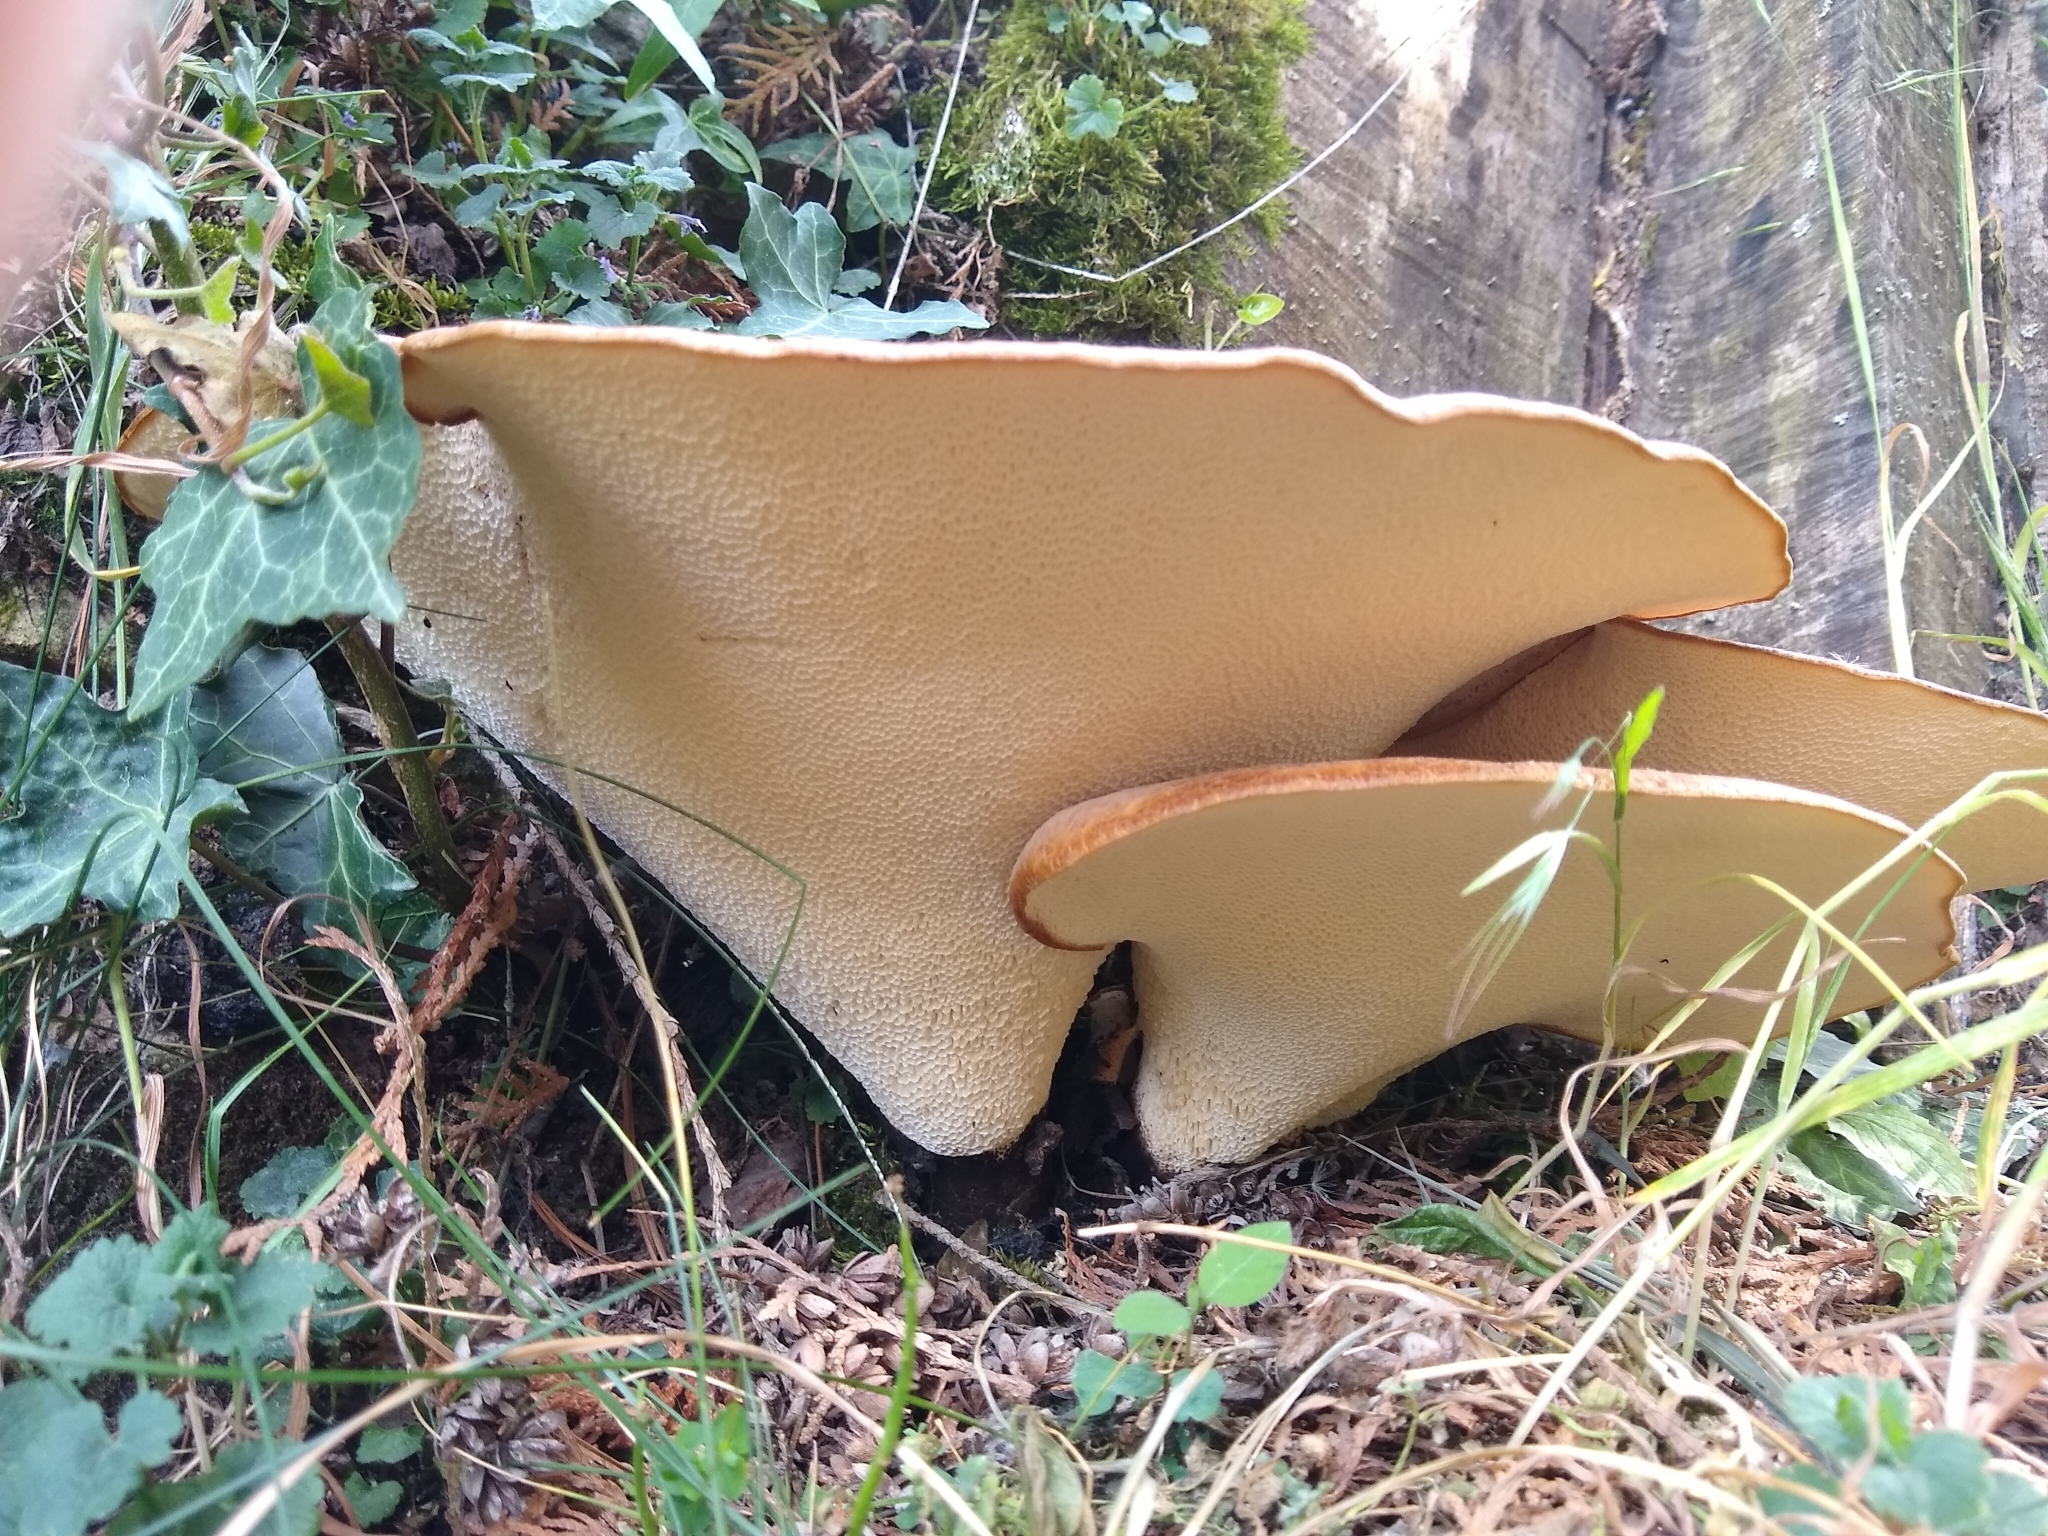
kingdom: Fungi
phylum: Basidiomycota
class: Agaricomycetes
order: Polyporales
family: Polyporaceae
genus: Cerioporus
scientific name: Cerioporus squamosus
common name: Dryad's saddle
